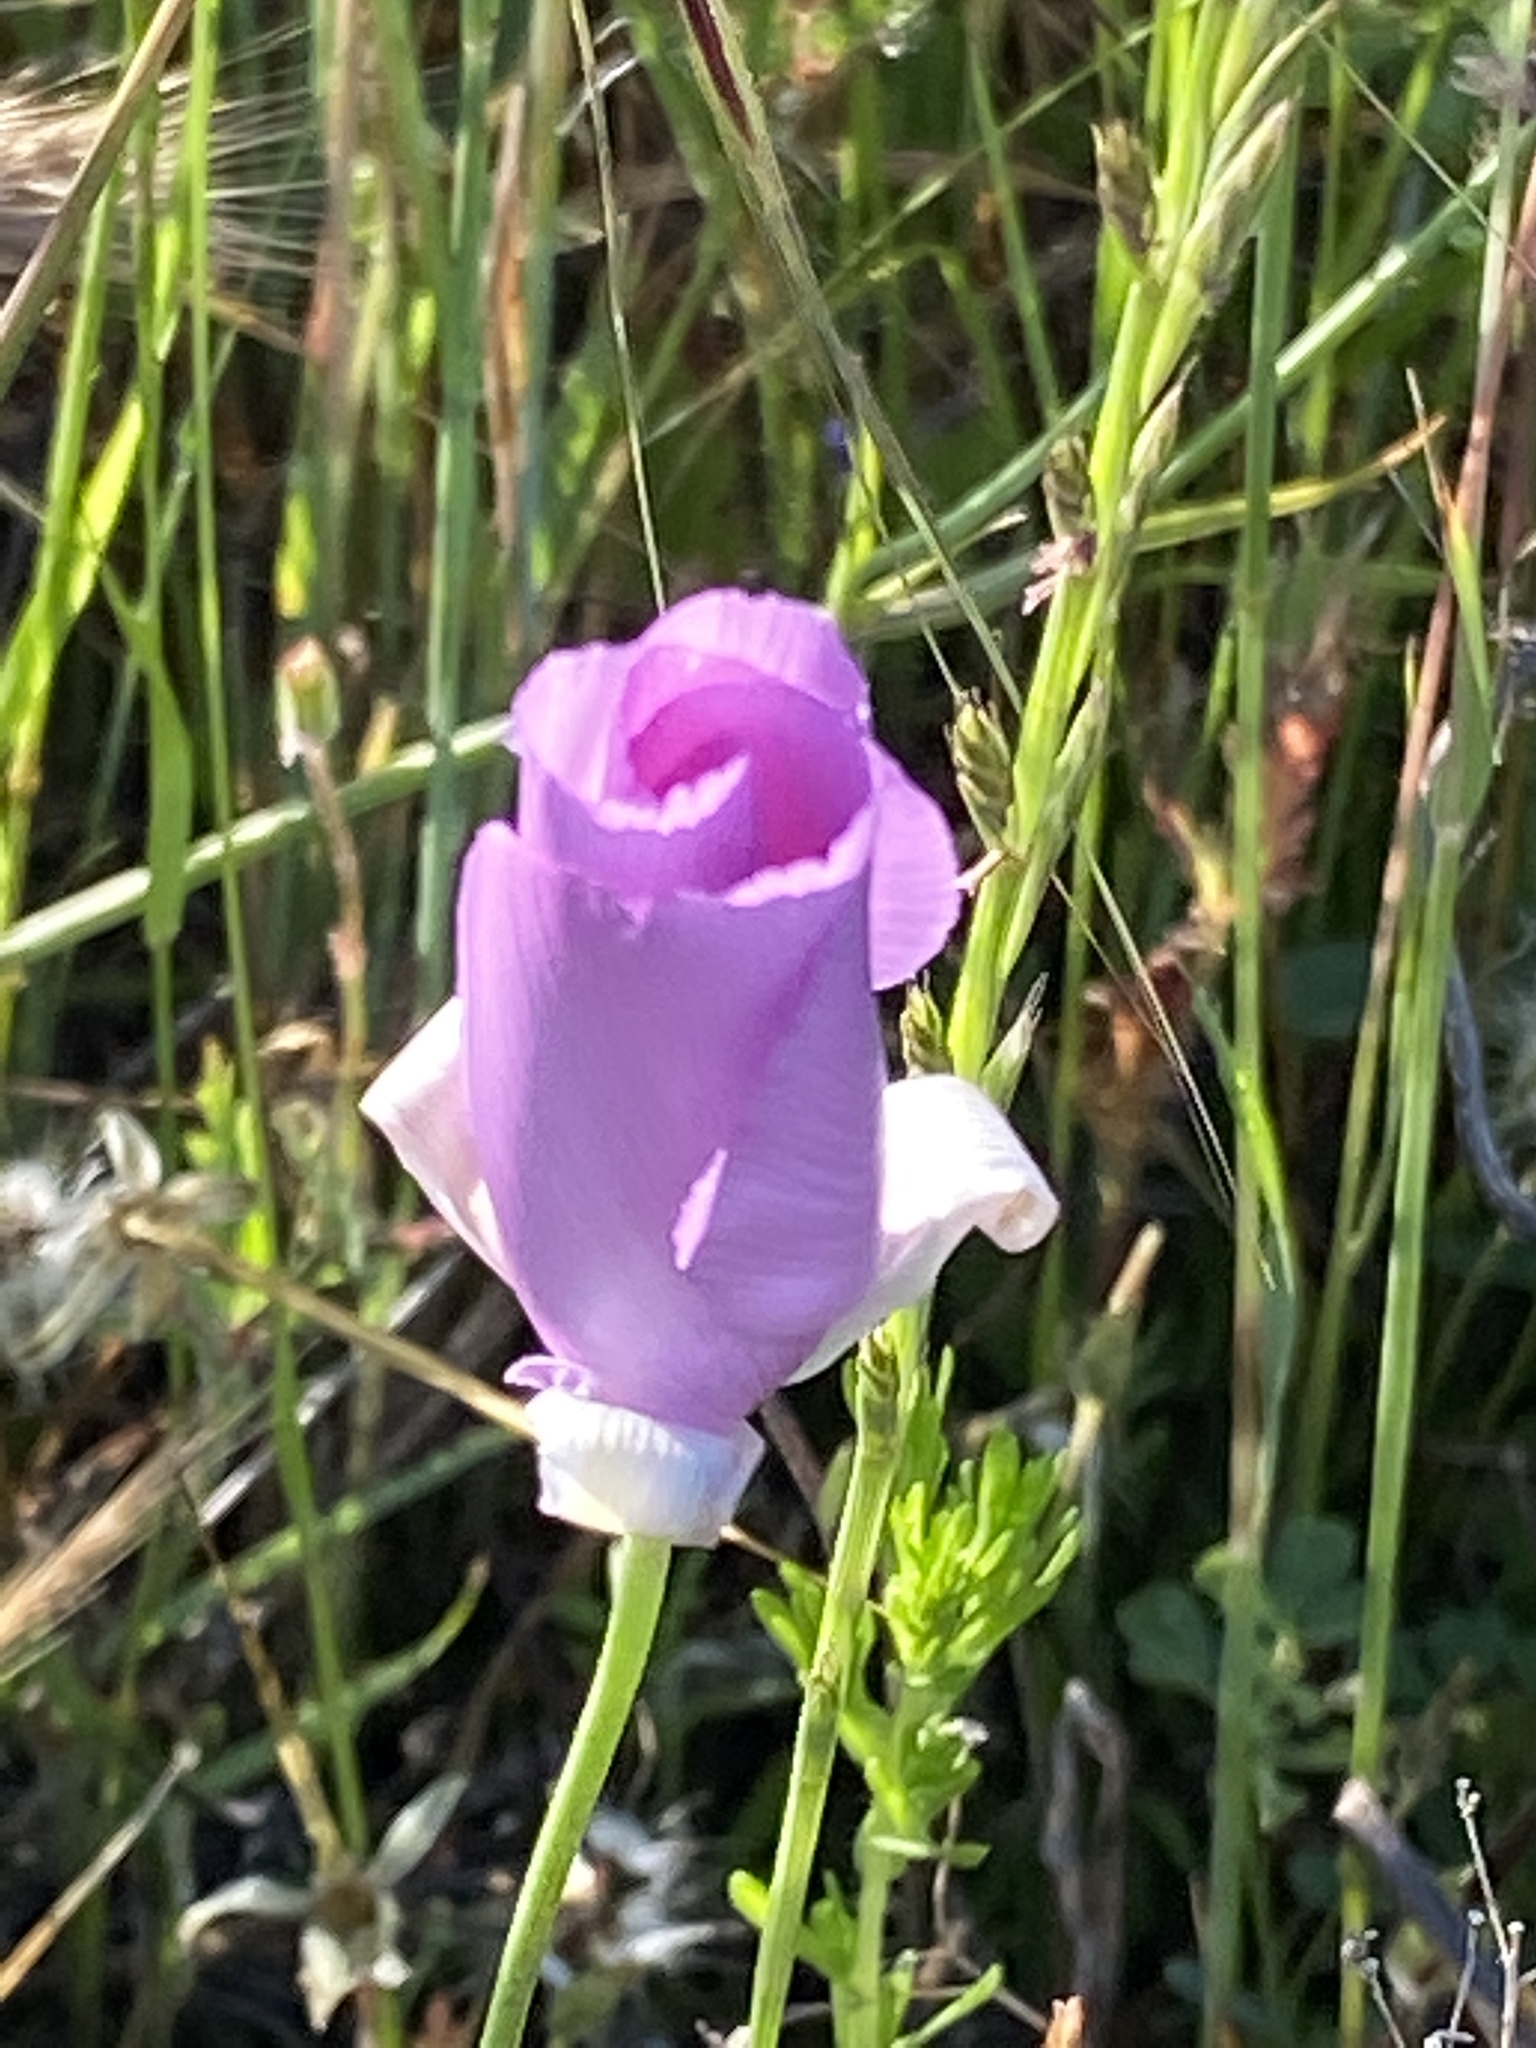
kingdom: Plantae
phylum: Tracheophyta
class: Liliopsida
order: Liliales
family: Liliaceae
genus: Calochortus
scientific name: Calochortus splendens
